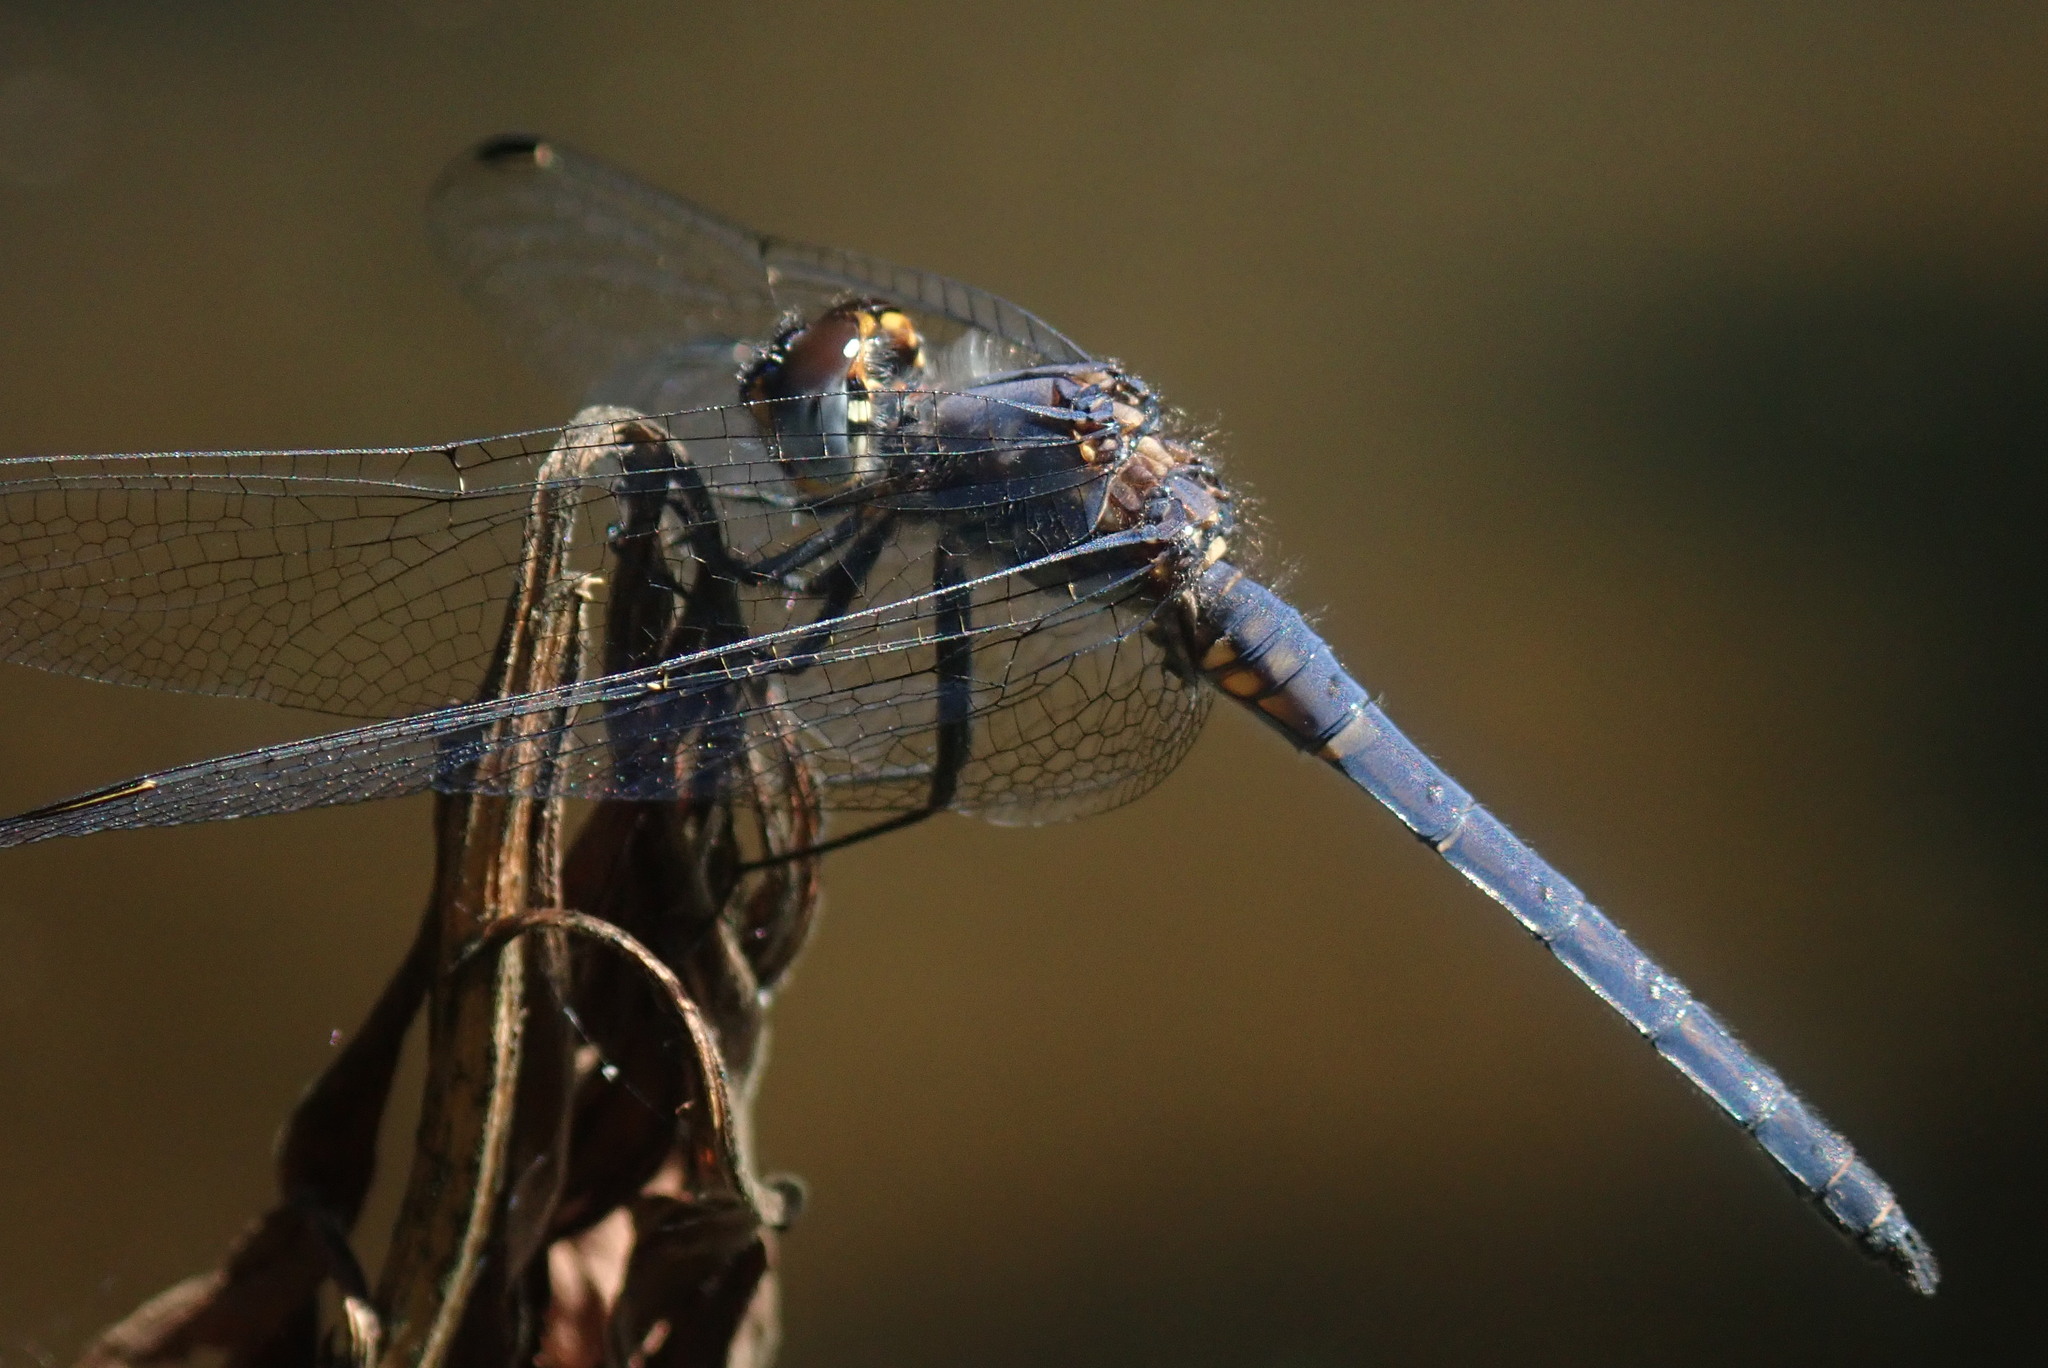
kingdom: Animalia
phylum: Arthropoda
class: Insecta
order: Odonata
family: Libellulidae
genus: Trithemis
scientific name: Trithemis furva
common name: Dark dropwing
